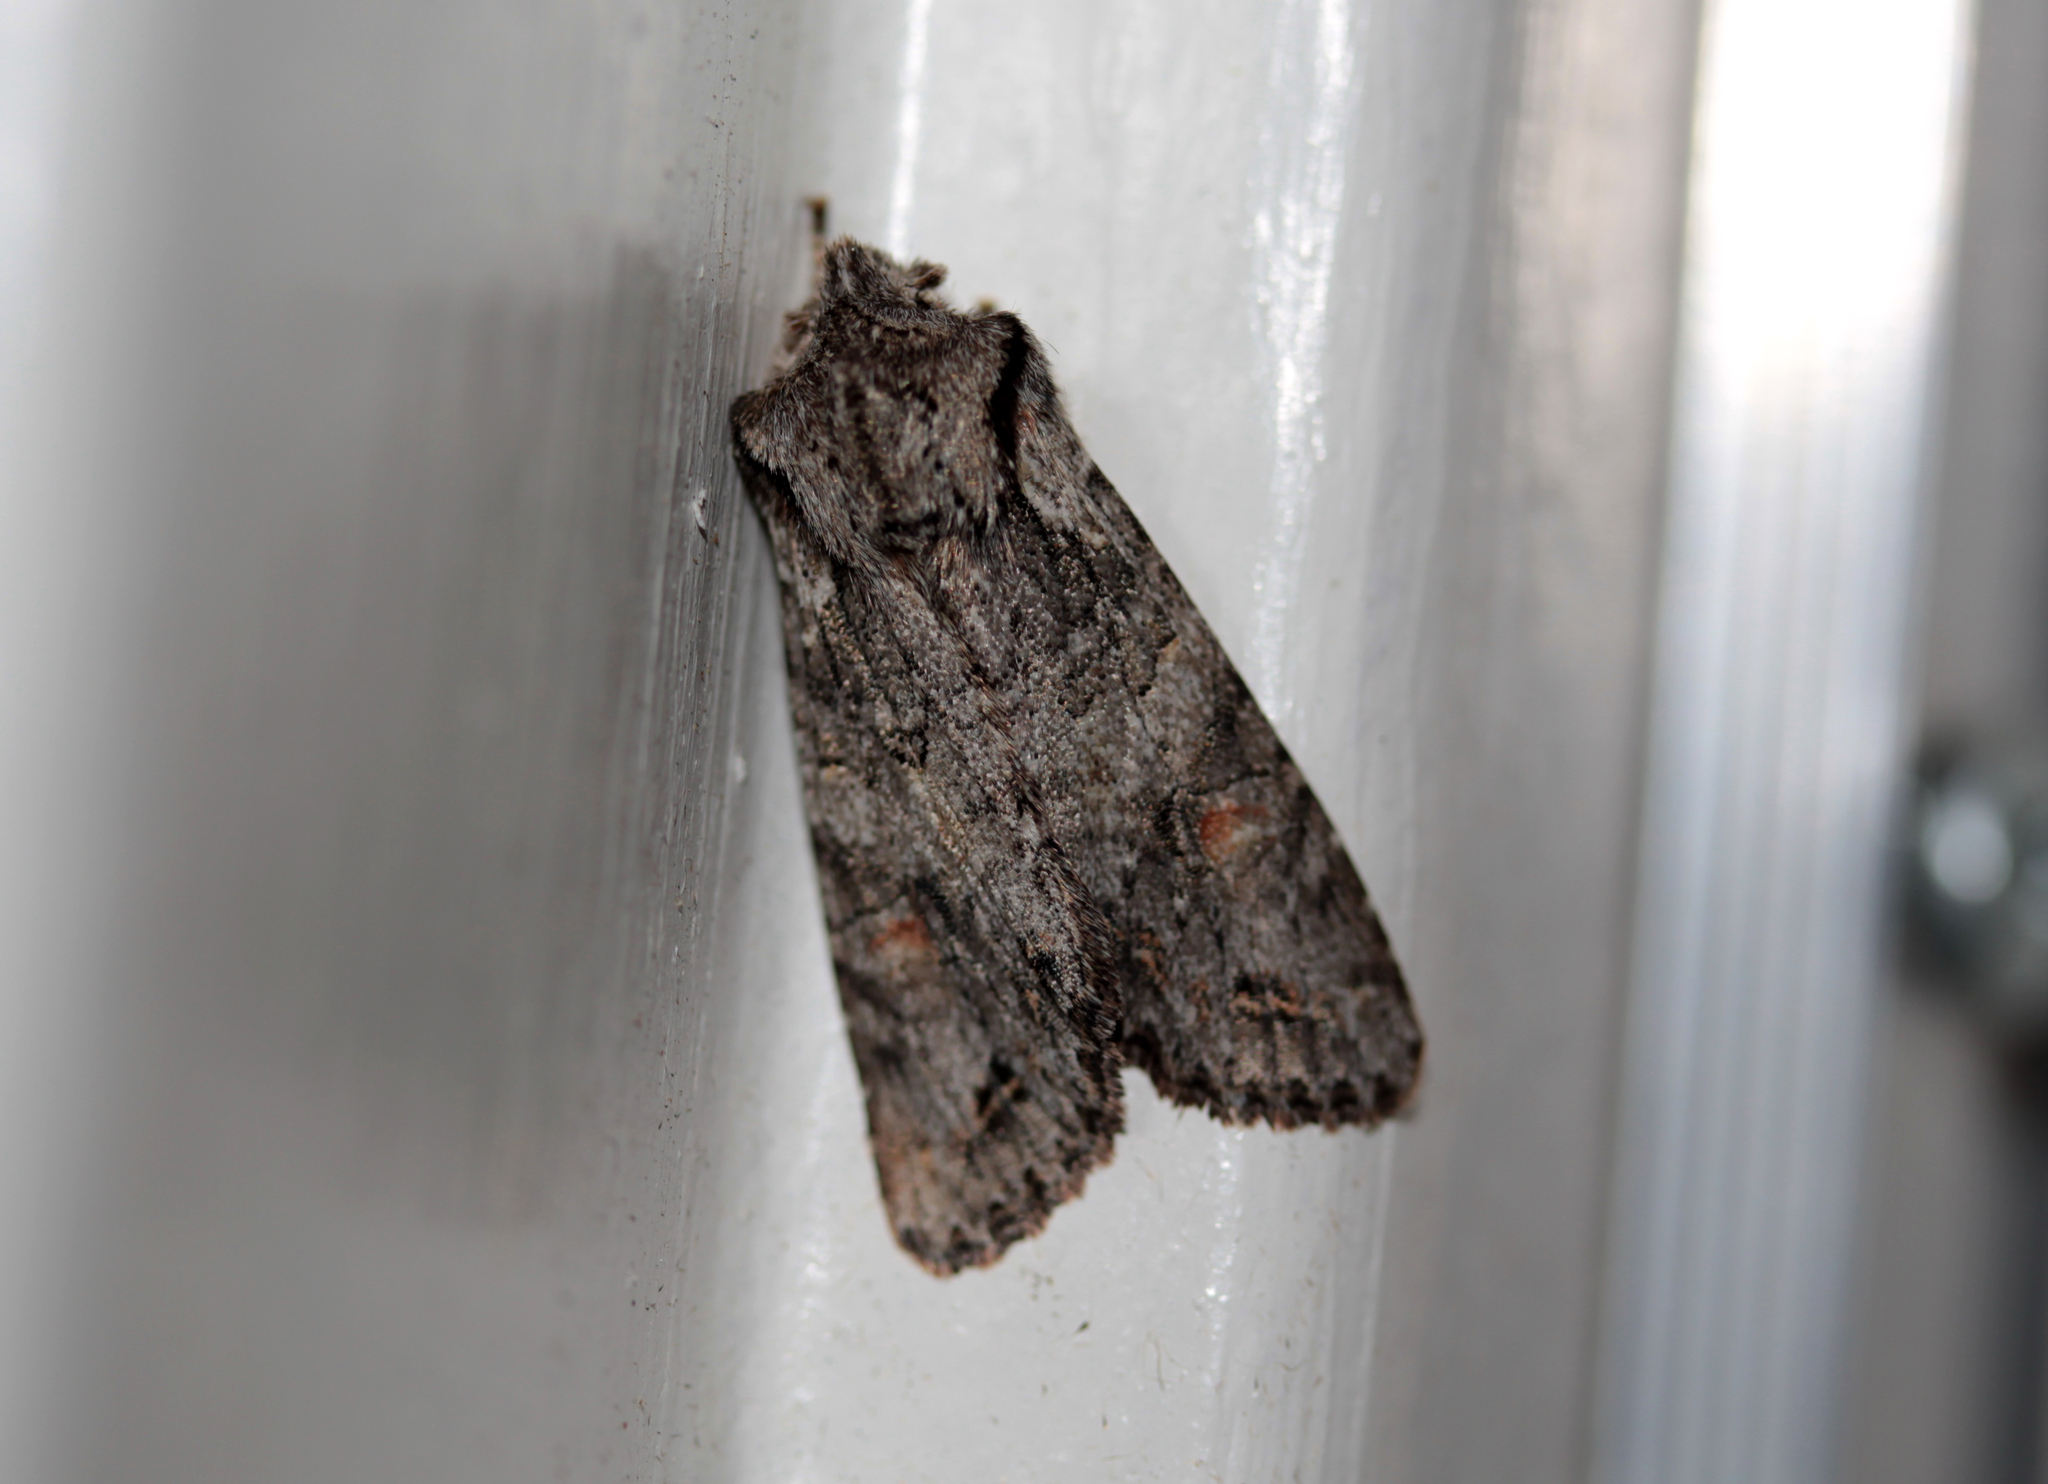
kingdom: Animalia
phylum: Arthropoda
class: Insecta
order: Lepidoptera
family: Noctuidae
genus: Egira
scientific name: Egira hiemalis
